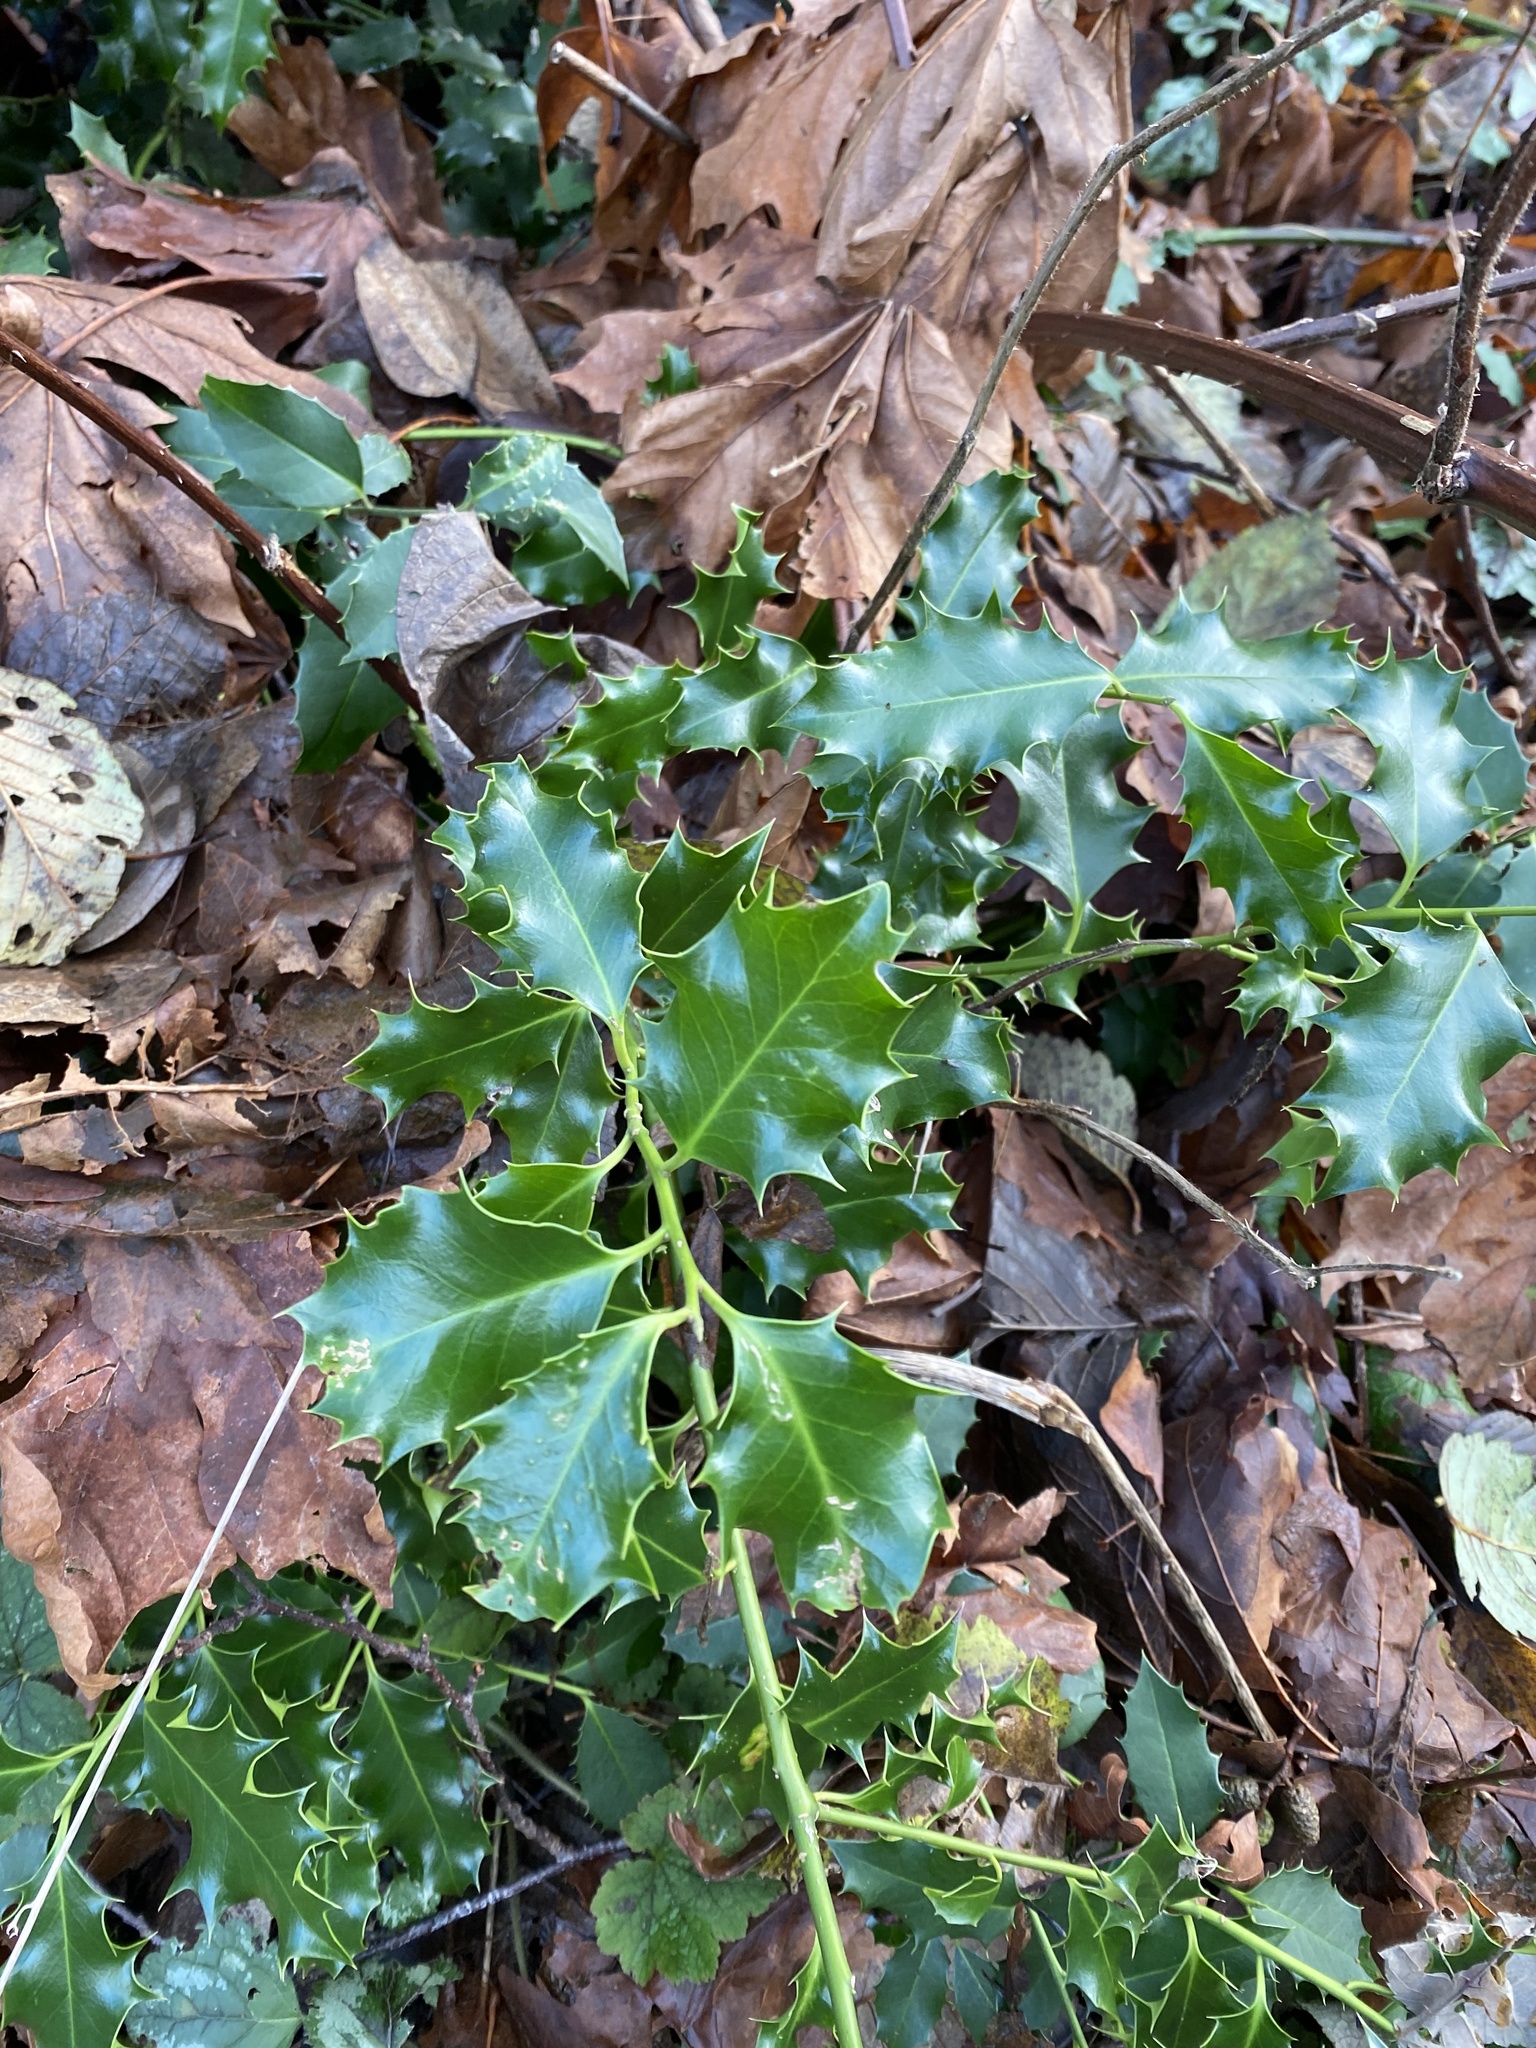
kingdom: Plantae
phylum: Tracheophyta
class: Magnoliopsida
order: Aquifoliales
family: Aquifoliaceae
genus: Ilex
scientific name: Ilex aquifolium
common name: English holly
